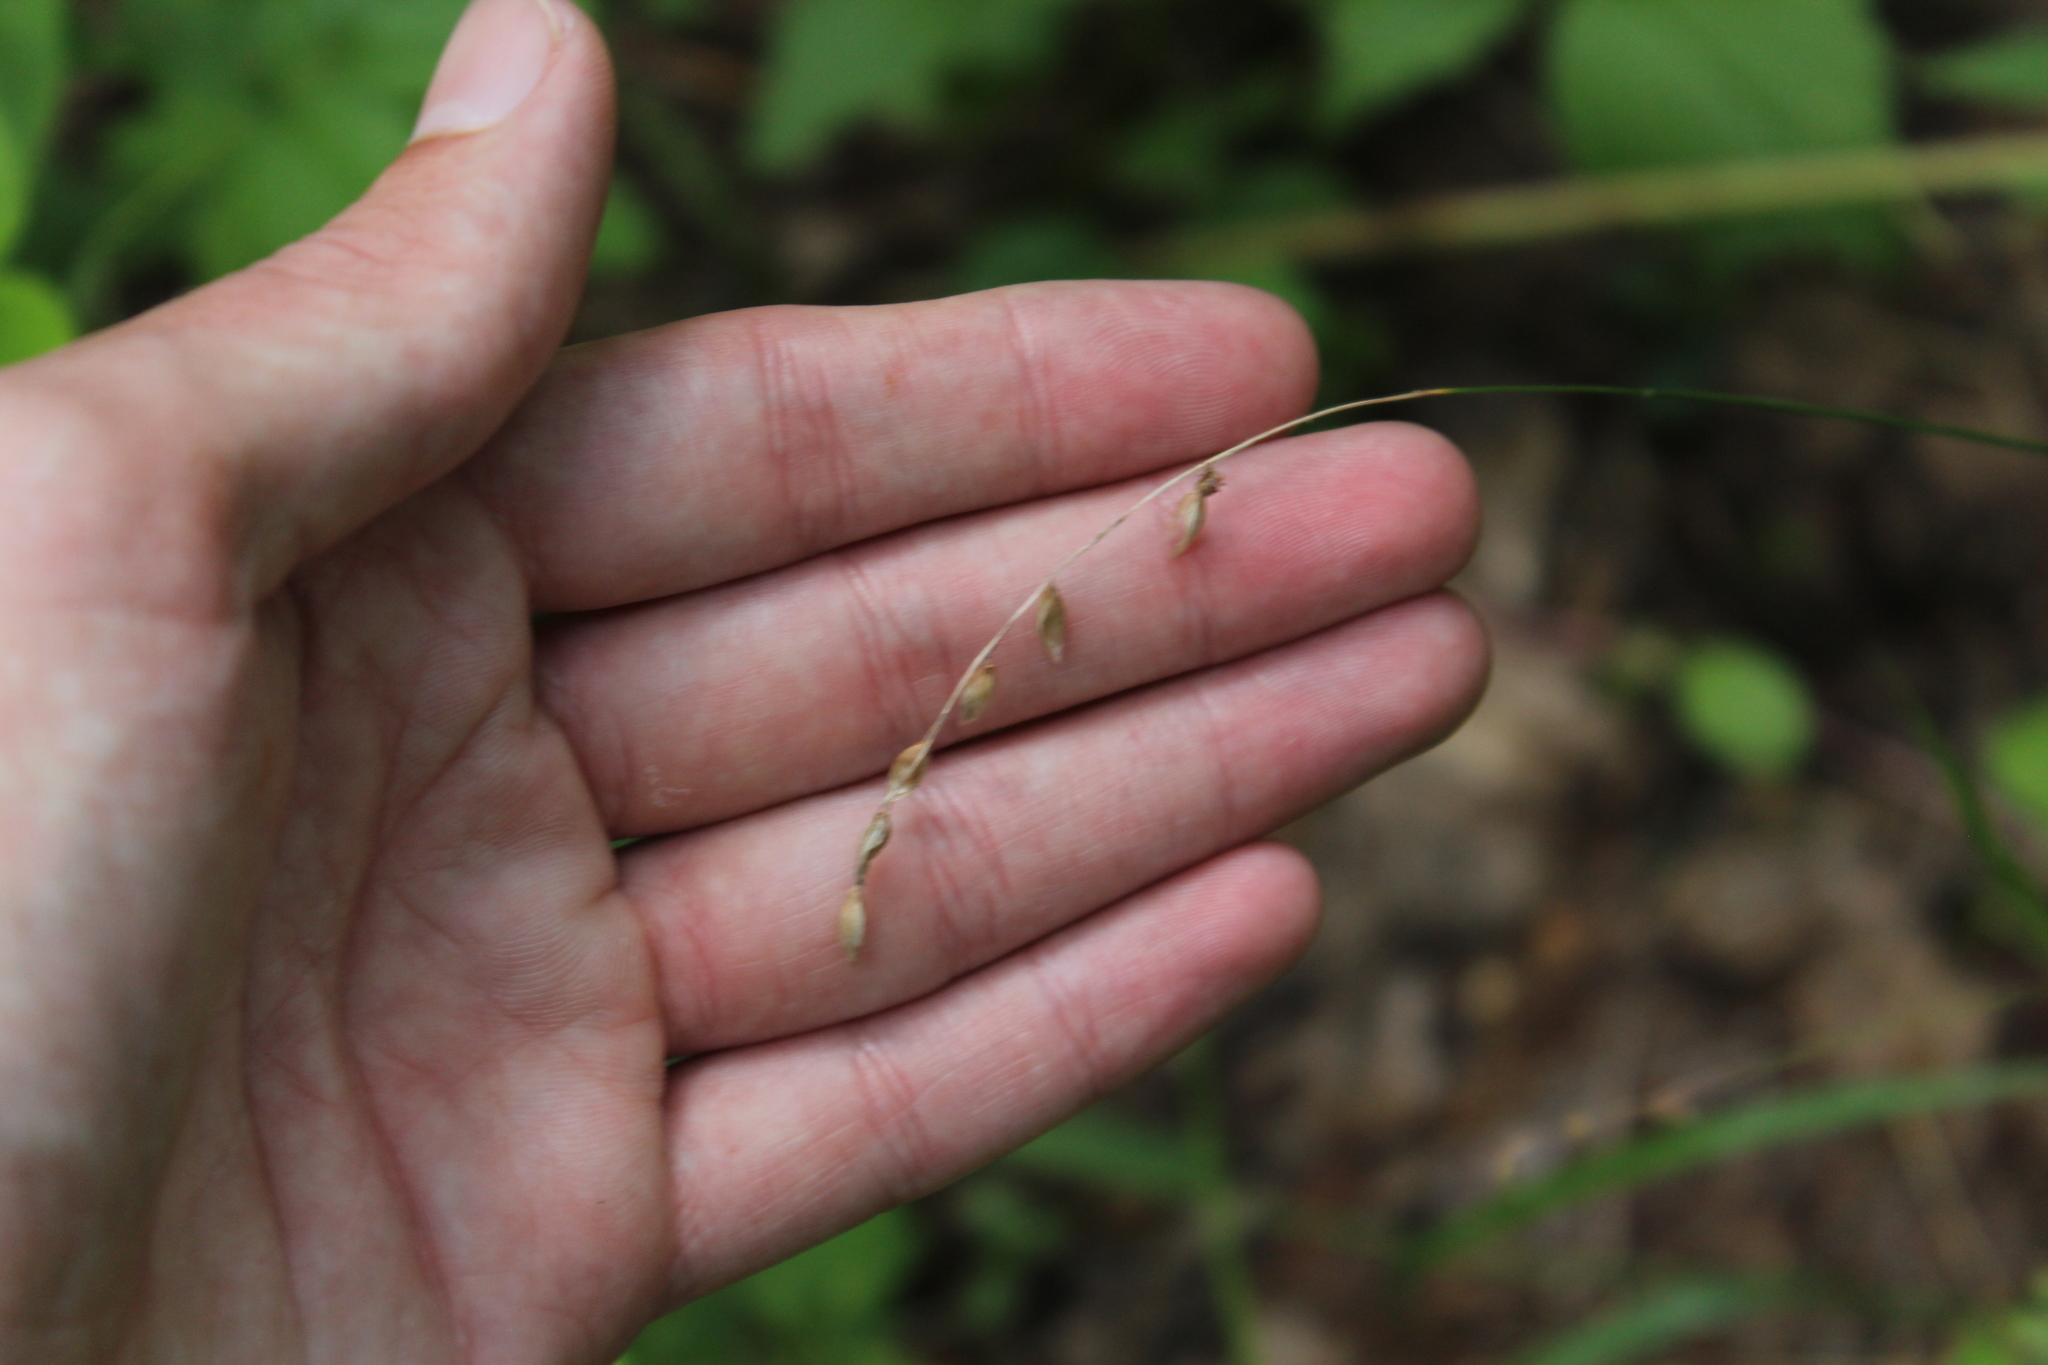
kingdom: Plantae
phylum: Tracheophyta
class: Liliopsida
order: Poales
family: Poaceae
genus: Melica
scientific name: Melica nutans
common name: Mountain melick
